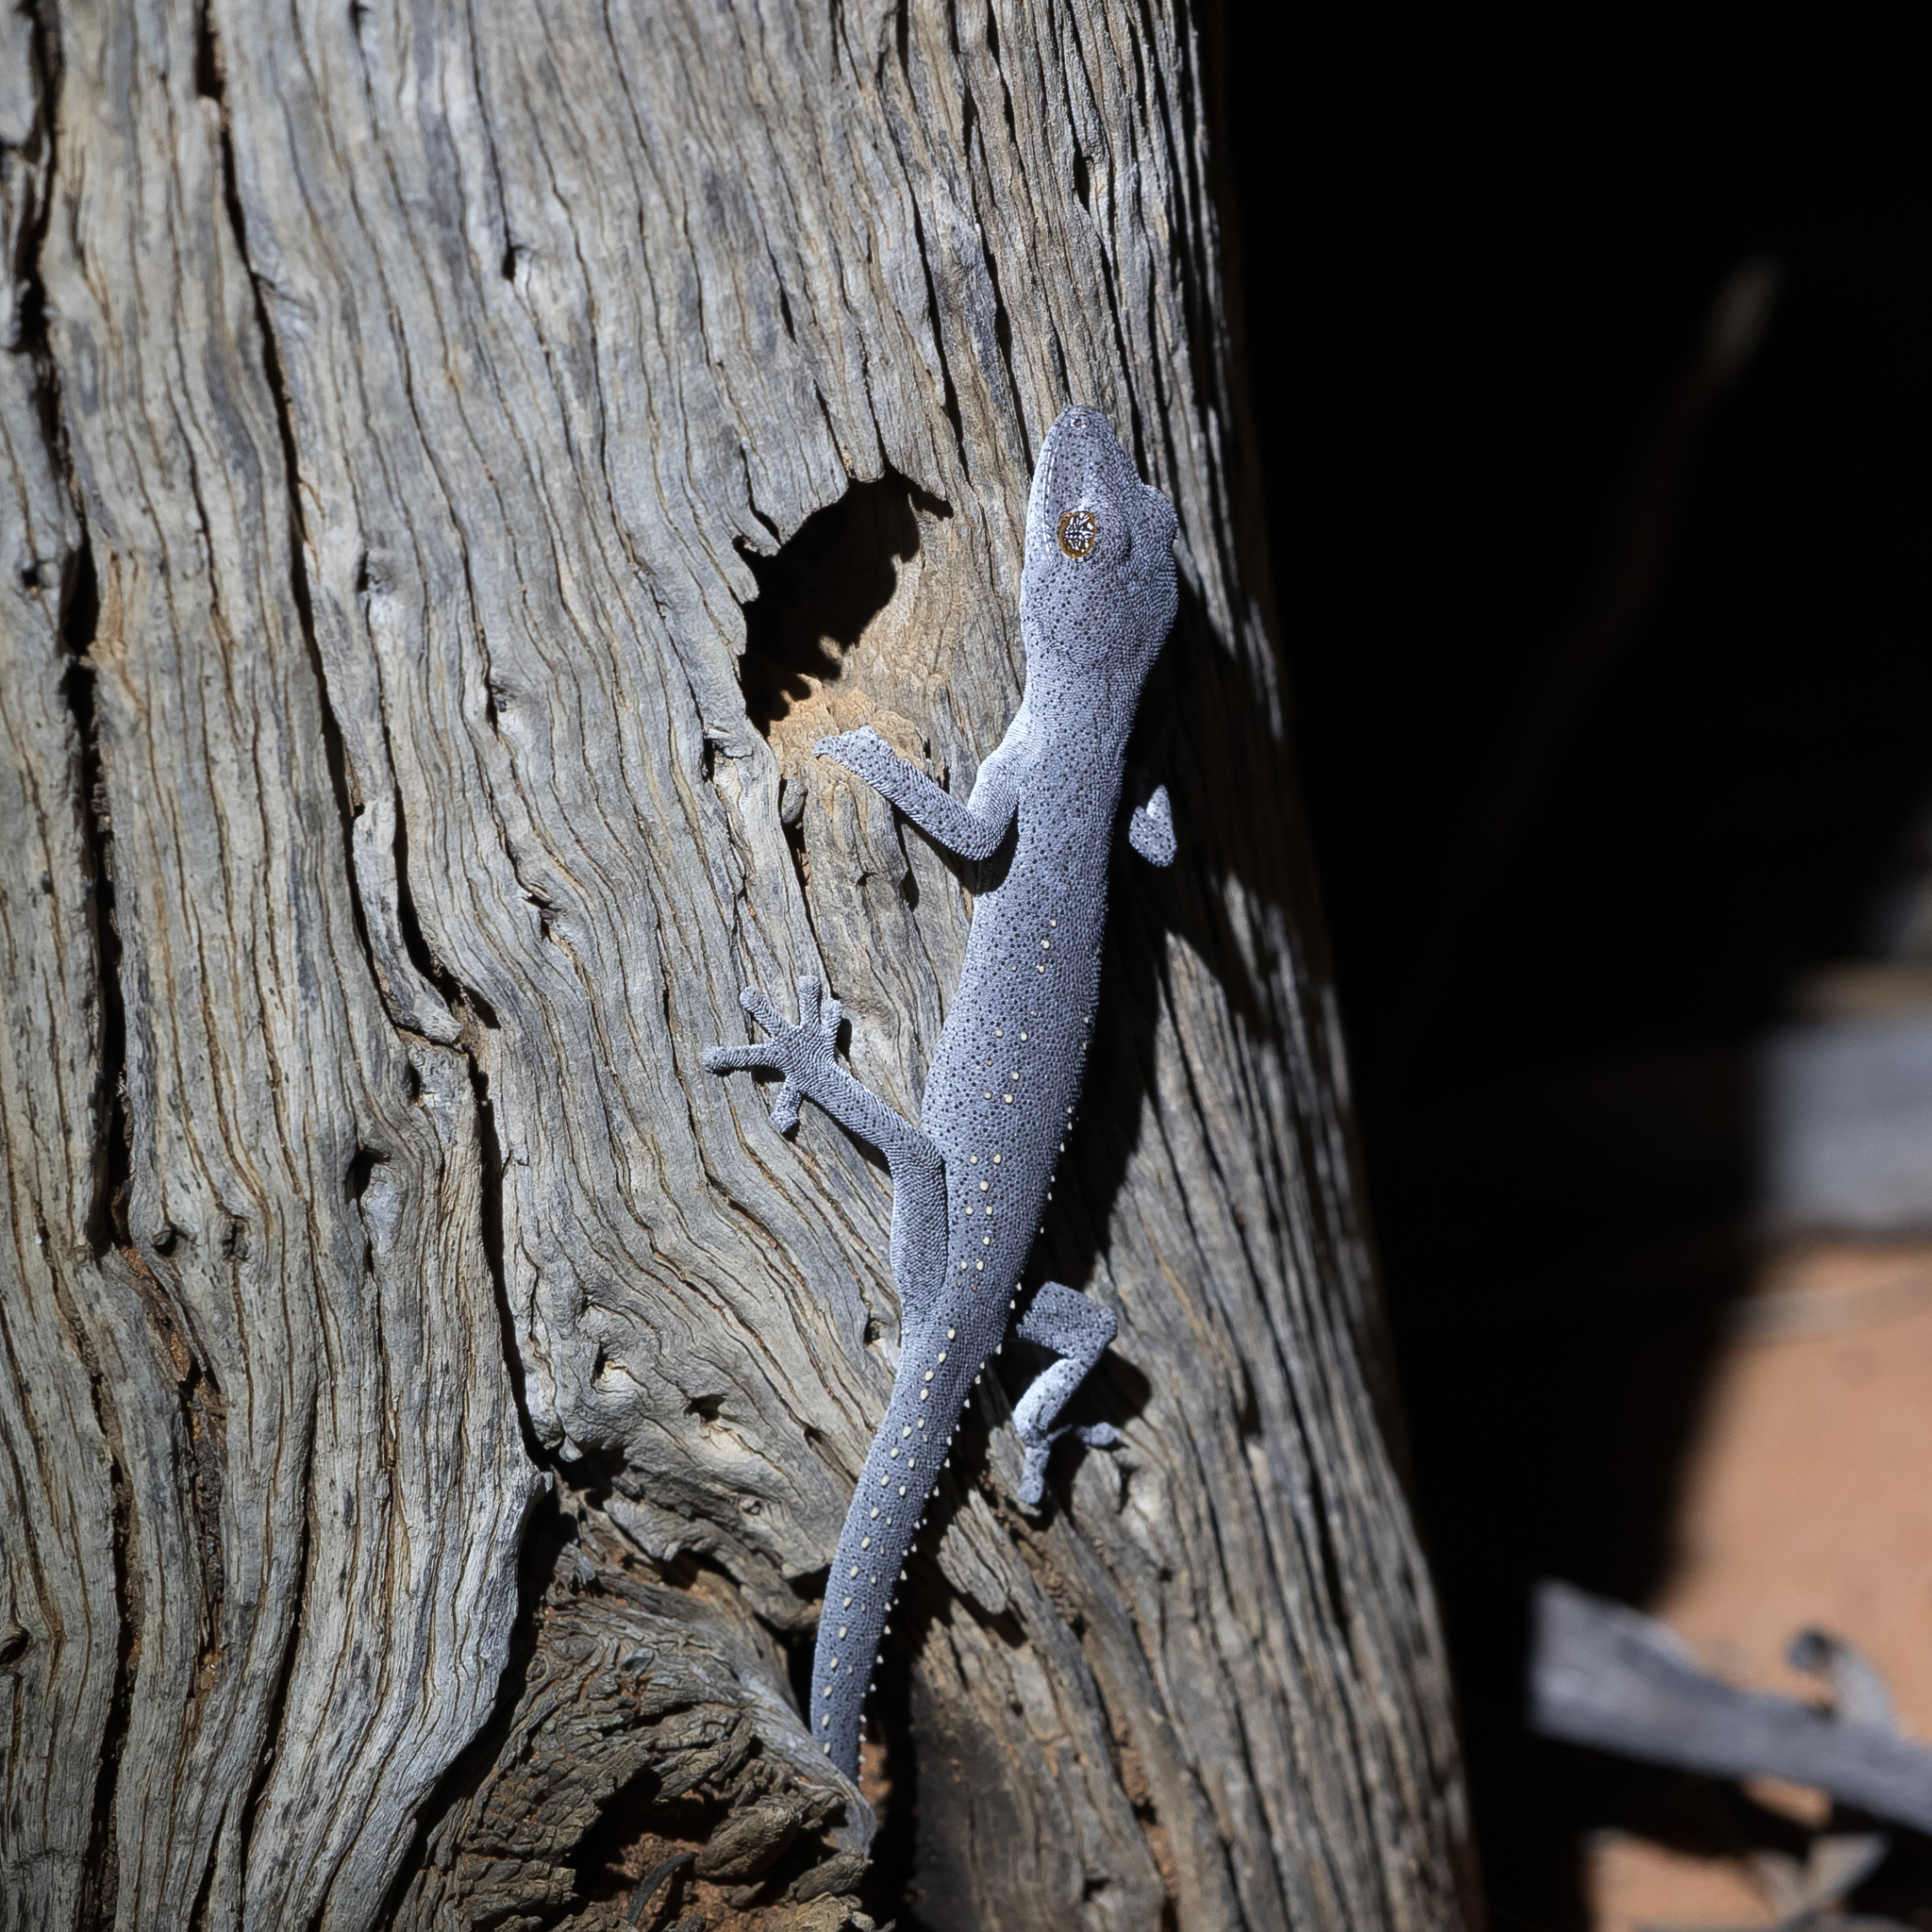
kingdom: Animalia
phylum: Chordata
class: Squamata
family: Diplodactylidae
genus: Strophurus
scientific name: Strophurus williamsi
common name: Eastern spiny-tailed gecko
